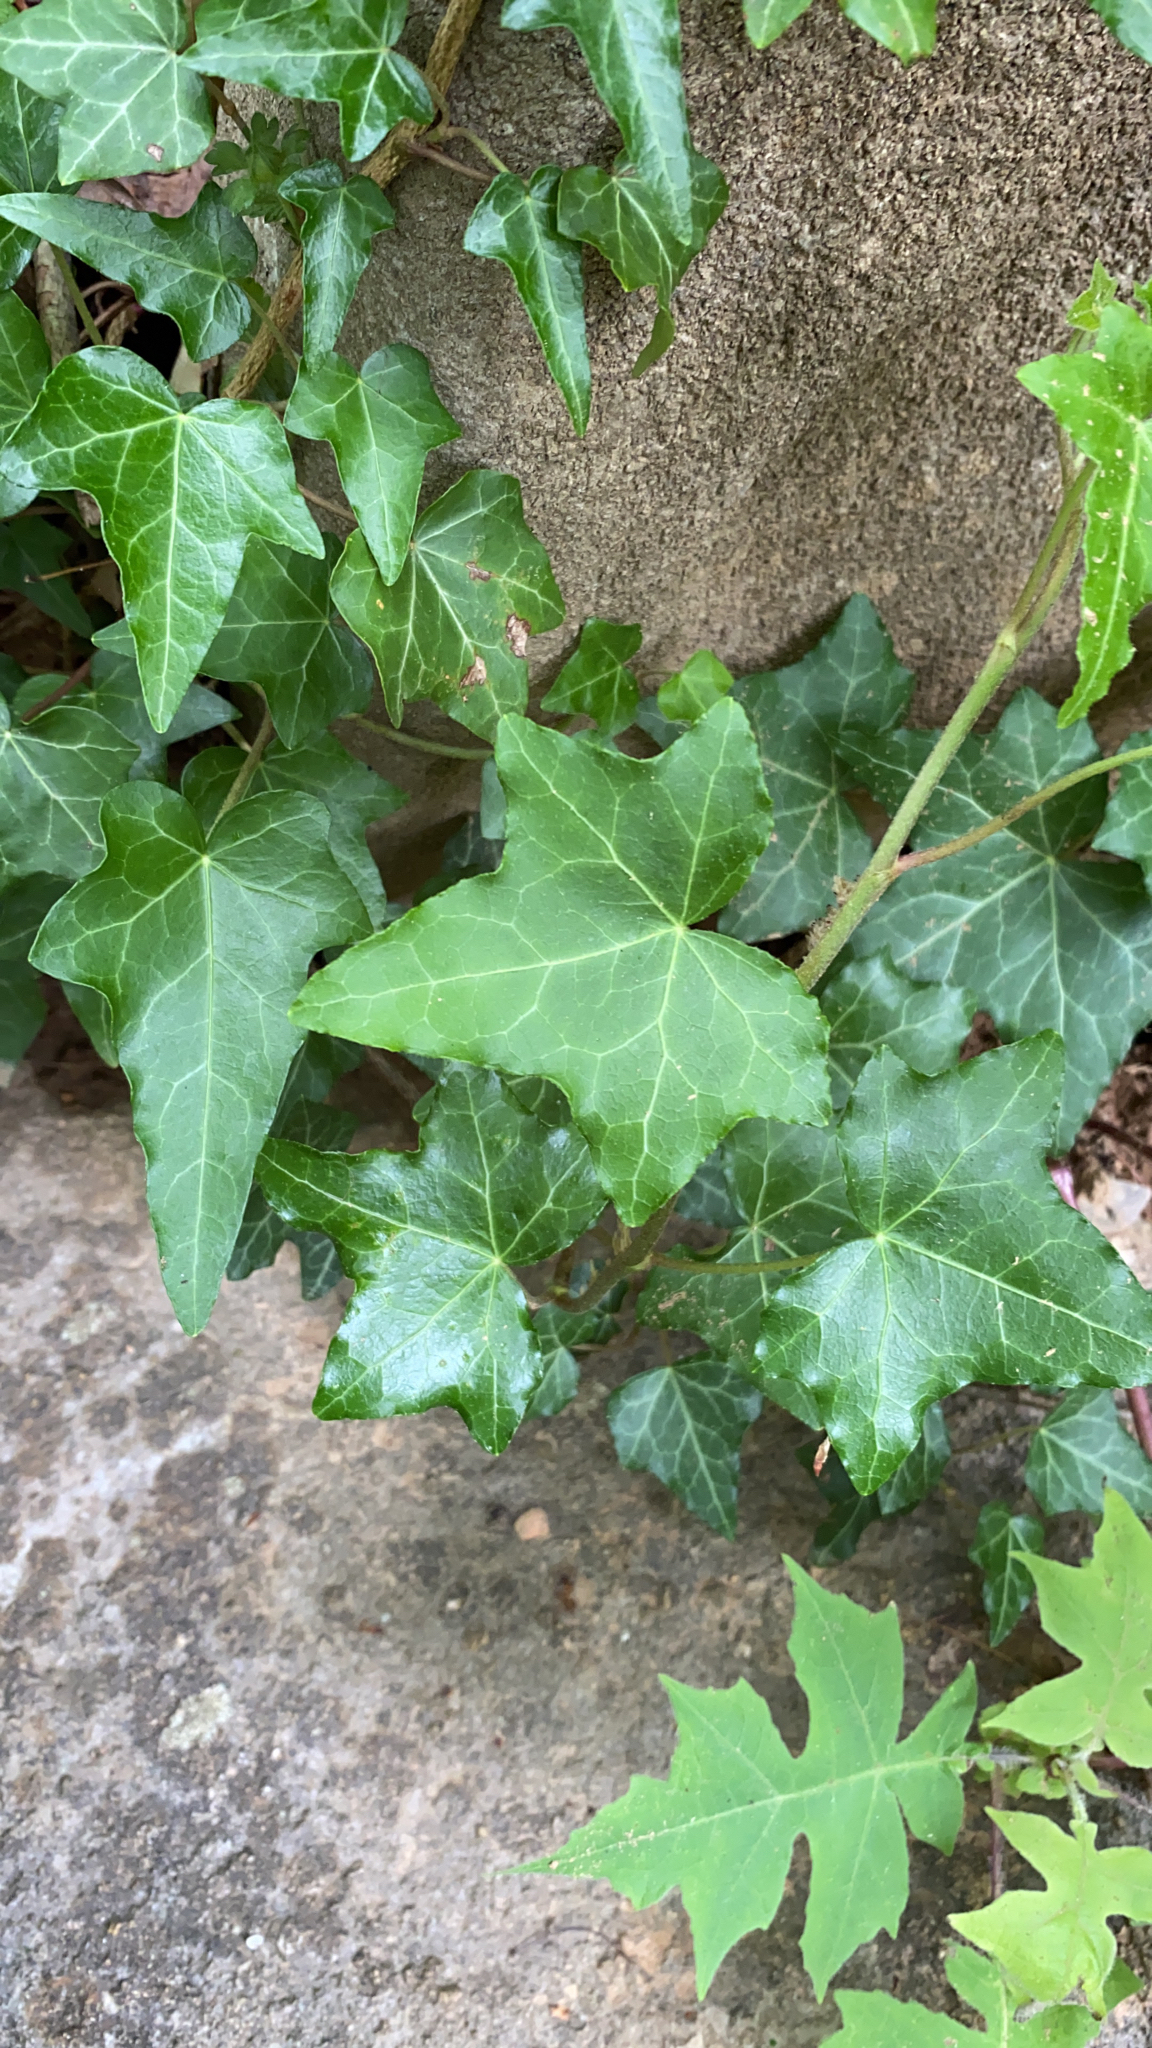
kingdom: Plantae
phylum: Tracheophyta
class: Magnoliopsida
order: Apiales
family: Araliaceae
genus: Hedera
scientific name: Hedera helix
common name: Ivy
